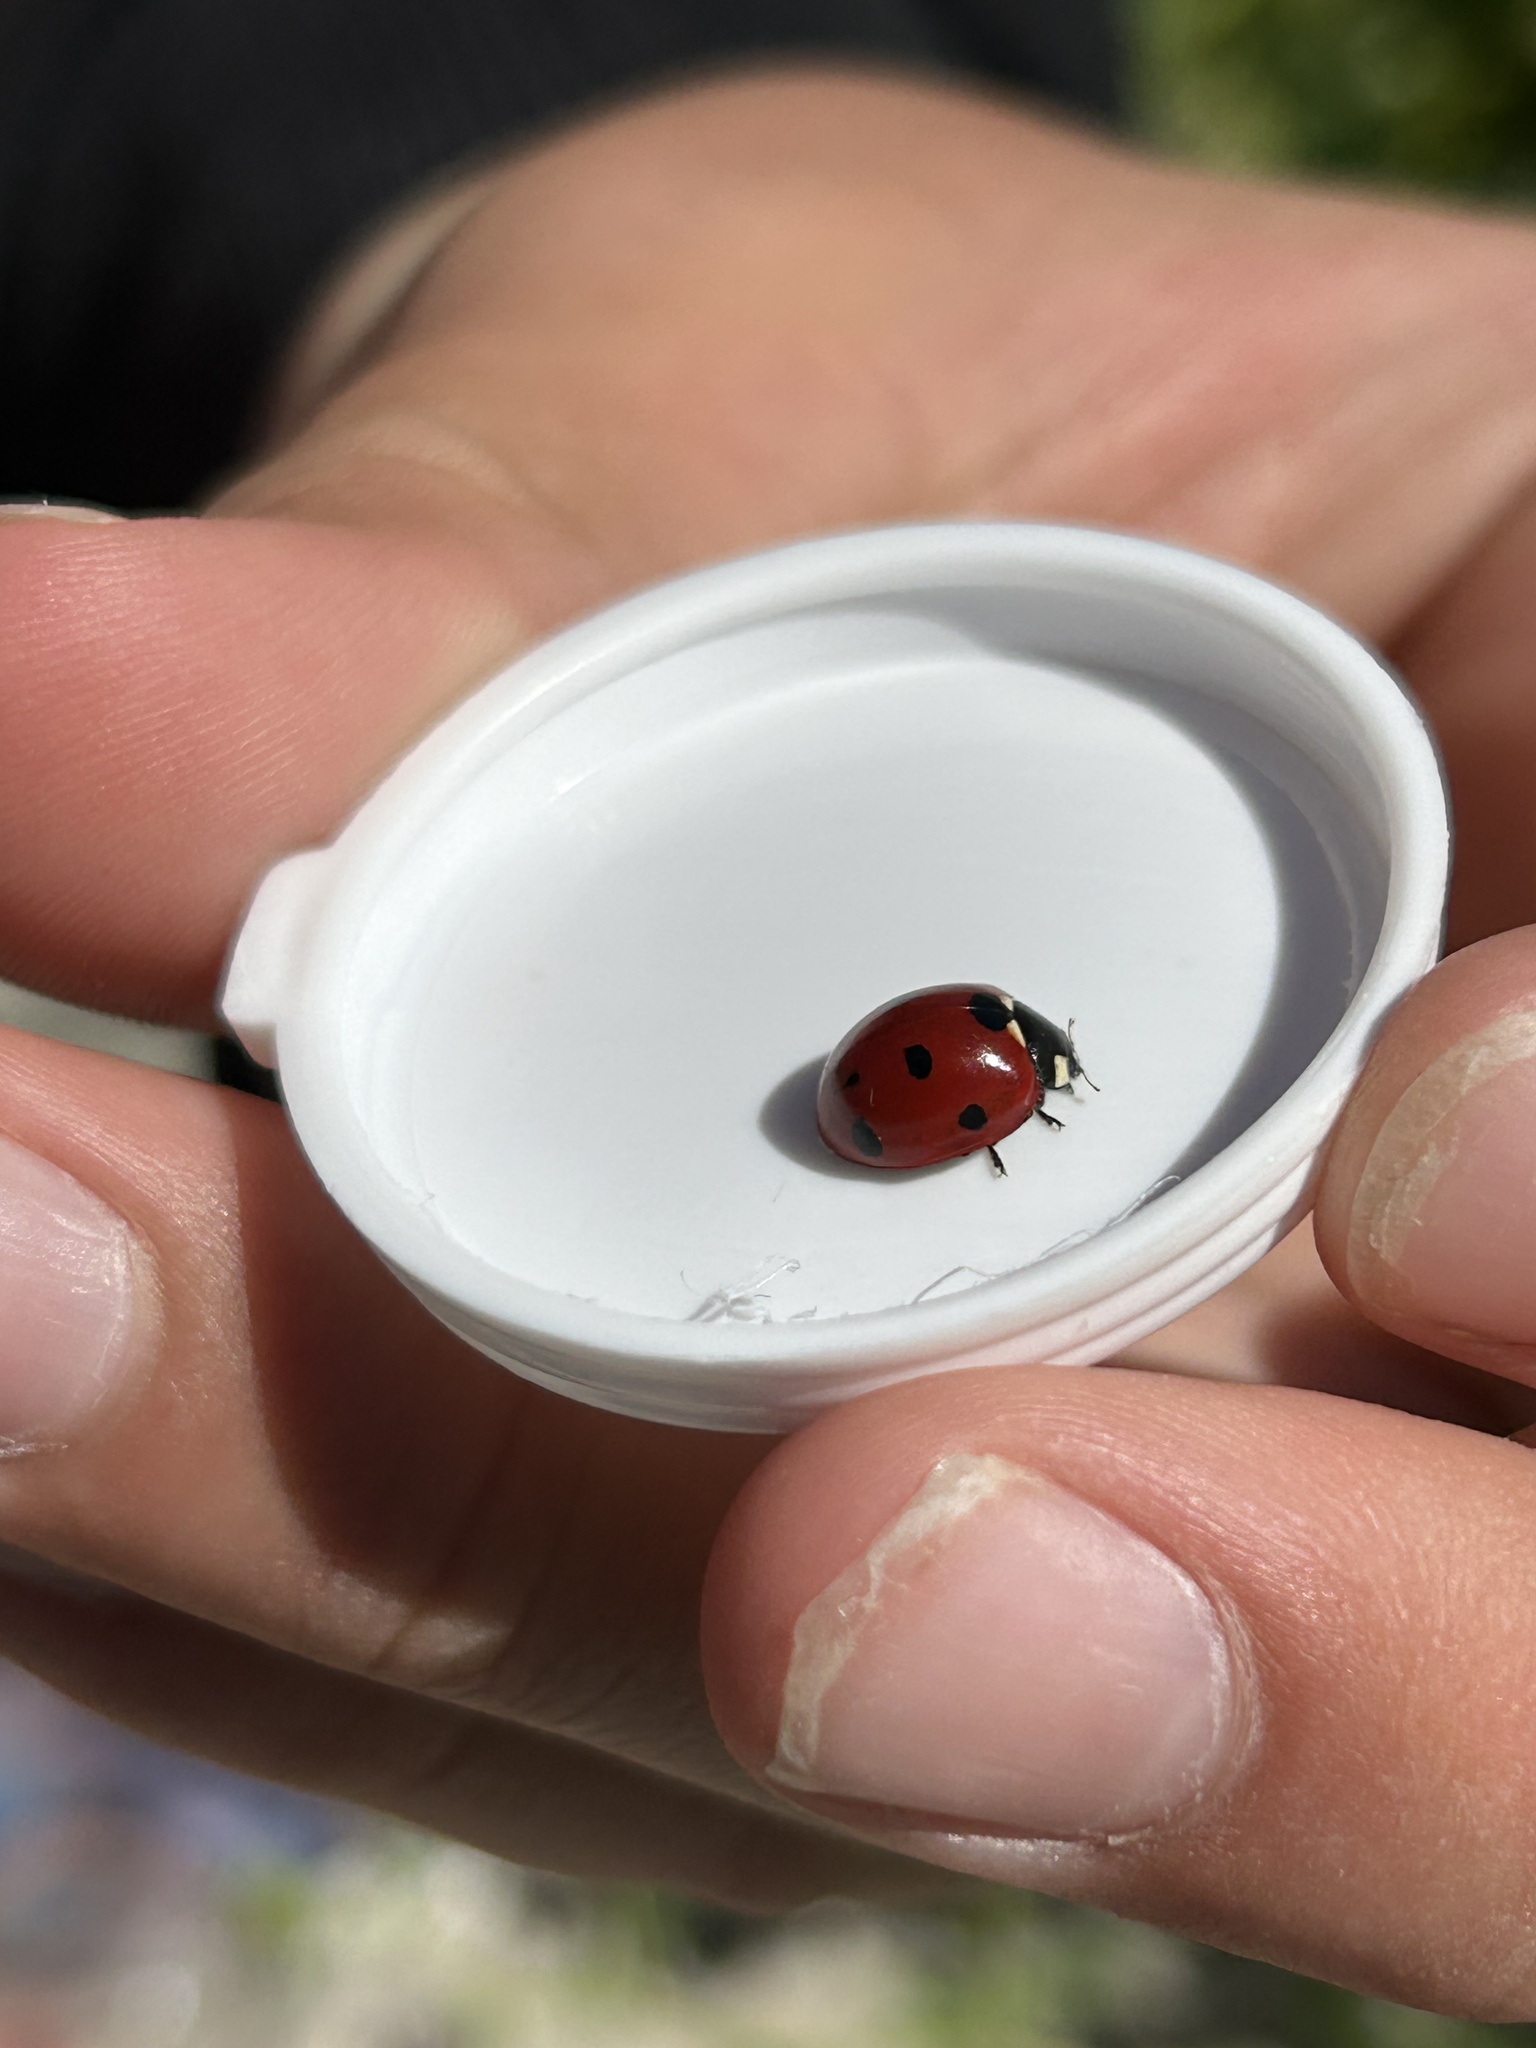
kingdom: Animalia
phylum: Arthropoda
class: Insecta
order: Coleoptera
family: Coccinellidae
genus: Coccinella
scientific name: Coccinella septempunctata
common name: Sevenspotted lady beetle
